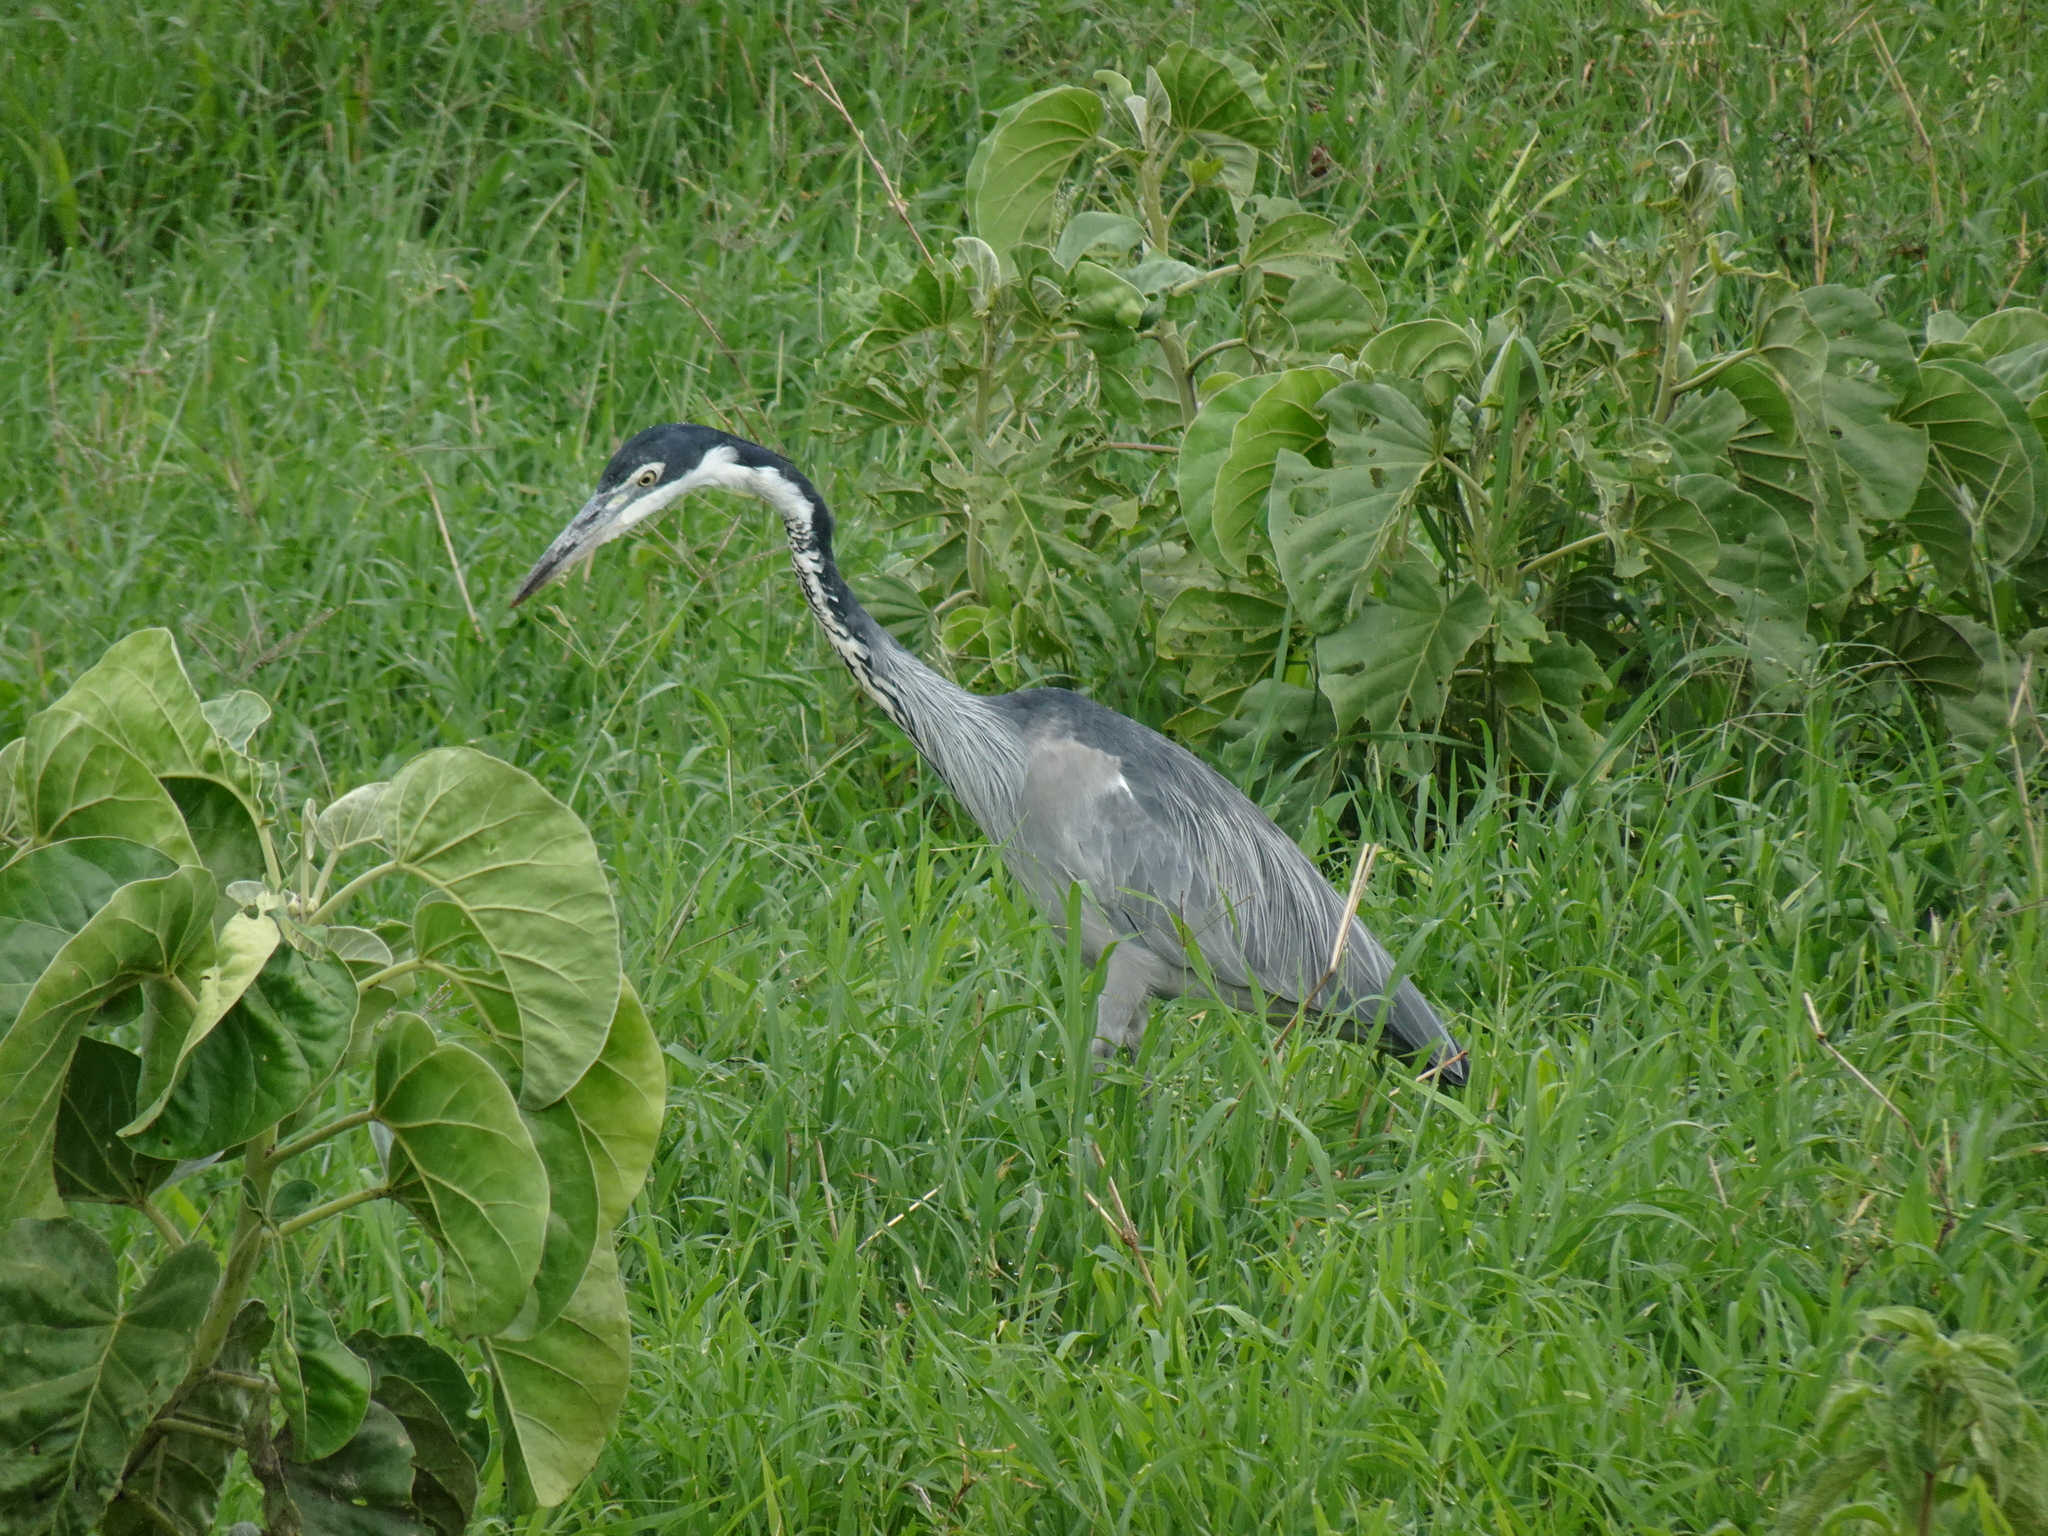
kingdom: Animalia
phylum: Chordata
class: Aves
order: Pelecaniformes
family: Ardeidae
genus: Ardea
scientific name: Ardea melanocephala
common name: Black-headed heron
